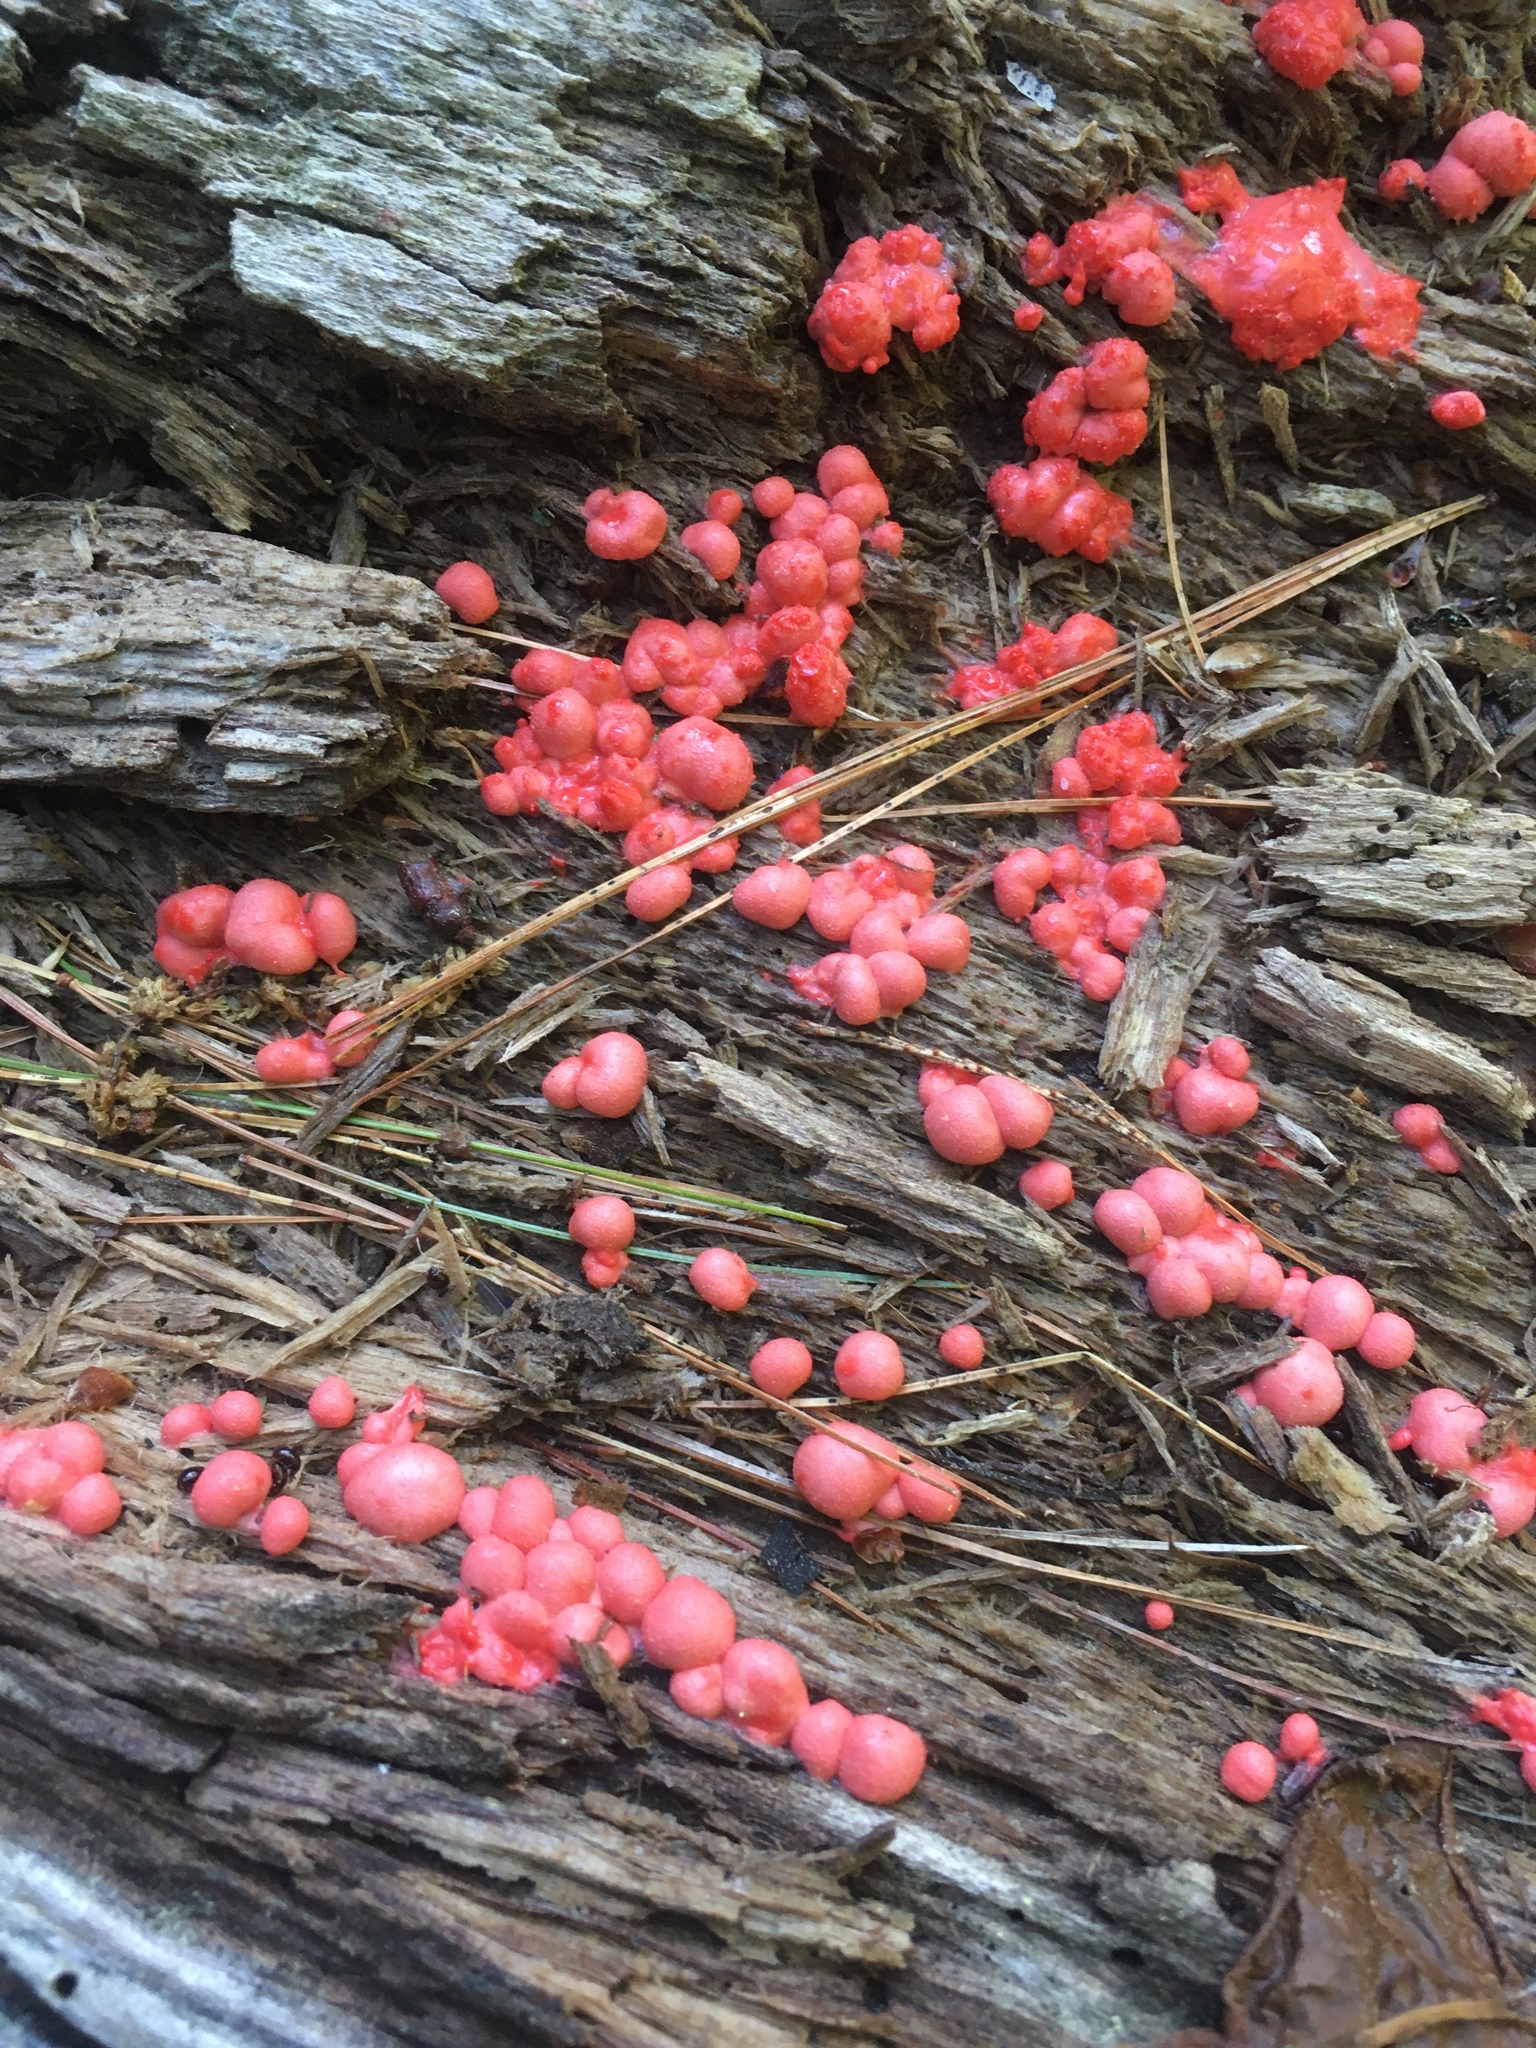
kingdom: Protozoa
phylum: Mycetozoa
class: Myxomycetes
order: Cribrariales
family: Tubiferaceae
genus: Lycogala
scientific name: Lycogala epidendrum
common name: Wolf's milk
